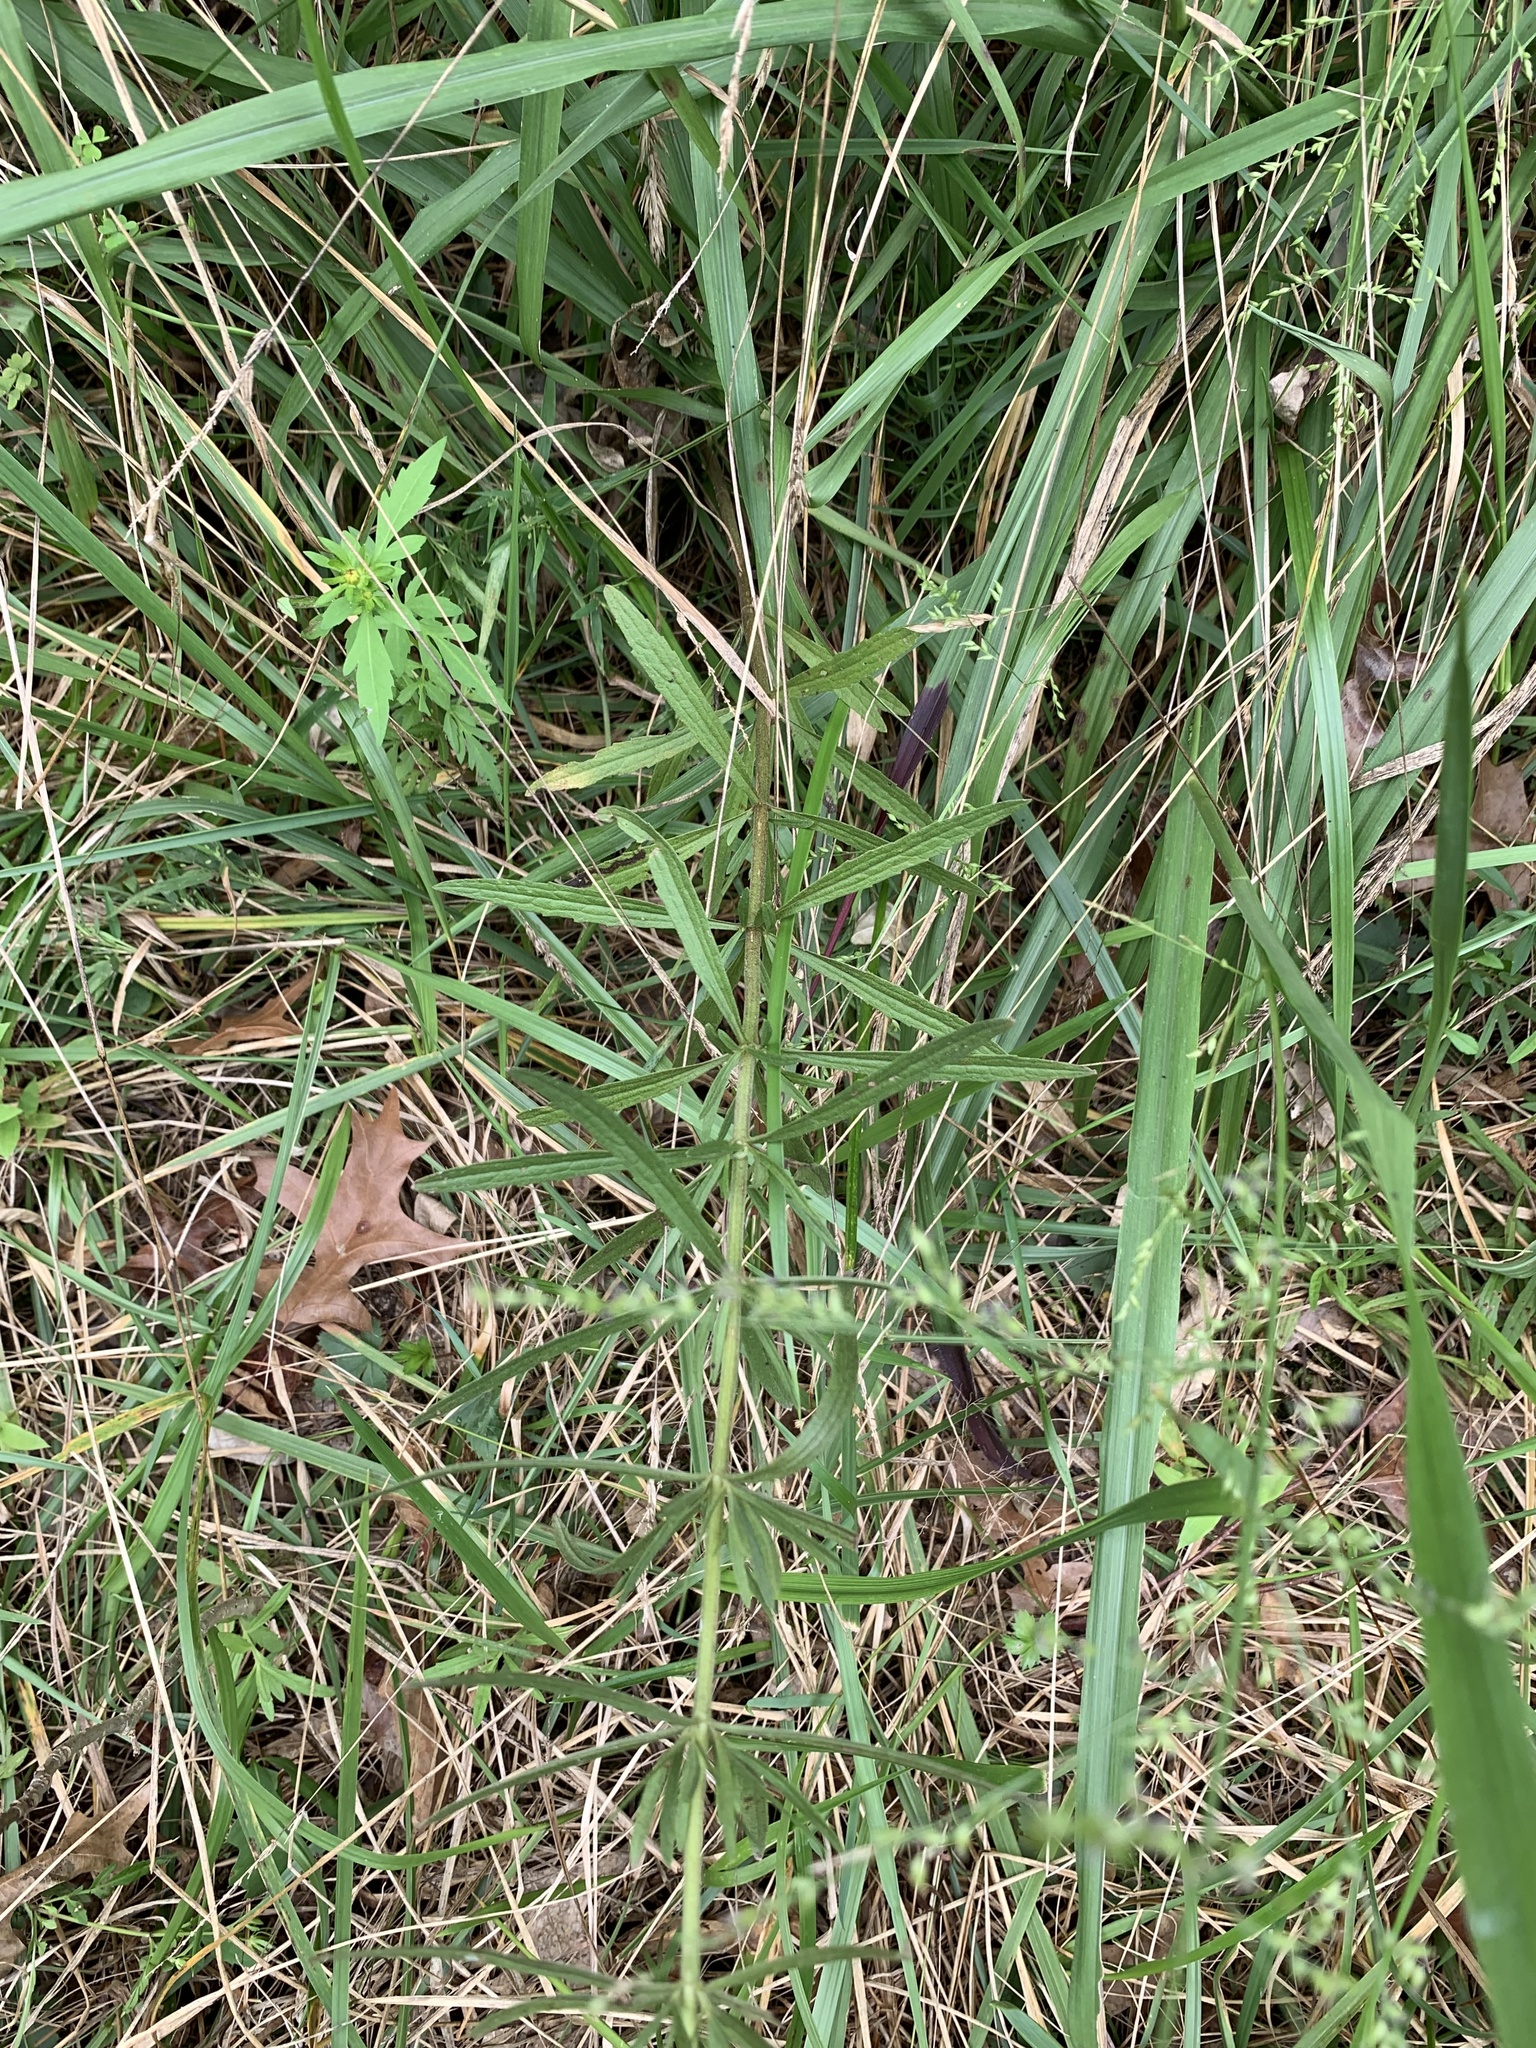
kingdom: Plantae
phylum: Tracheophyta
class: Magnoliopsida
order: Asterales
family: Asteraceae
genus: Eupatorium
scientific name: Eupatorium hyssopifolium
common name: Hyssop-leaf thoroughwort
